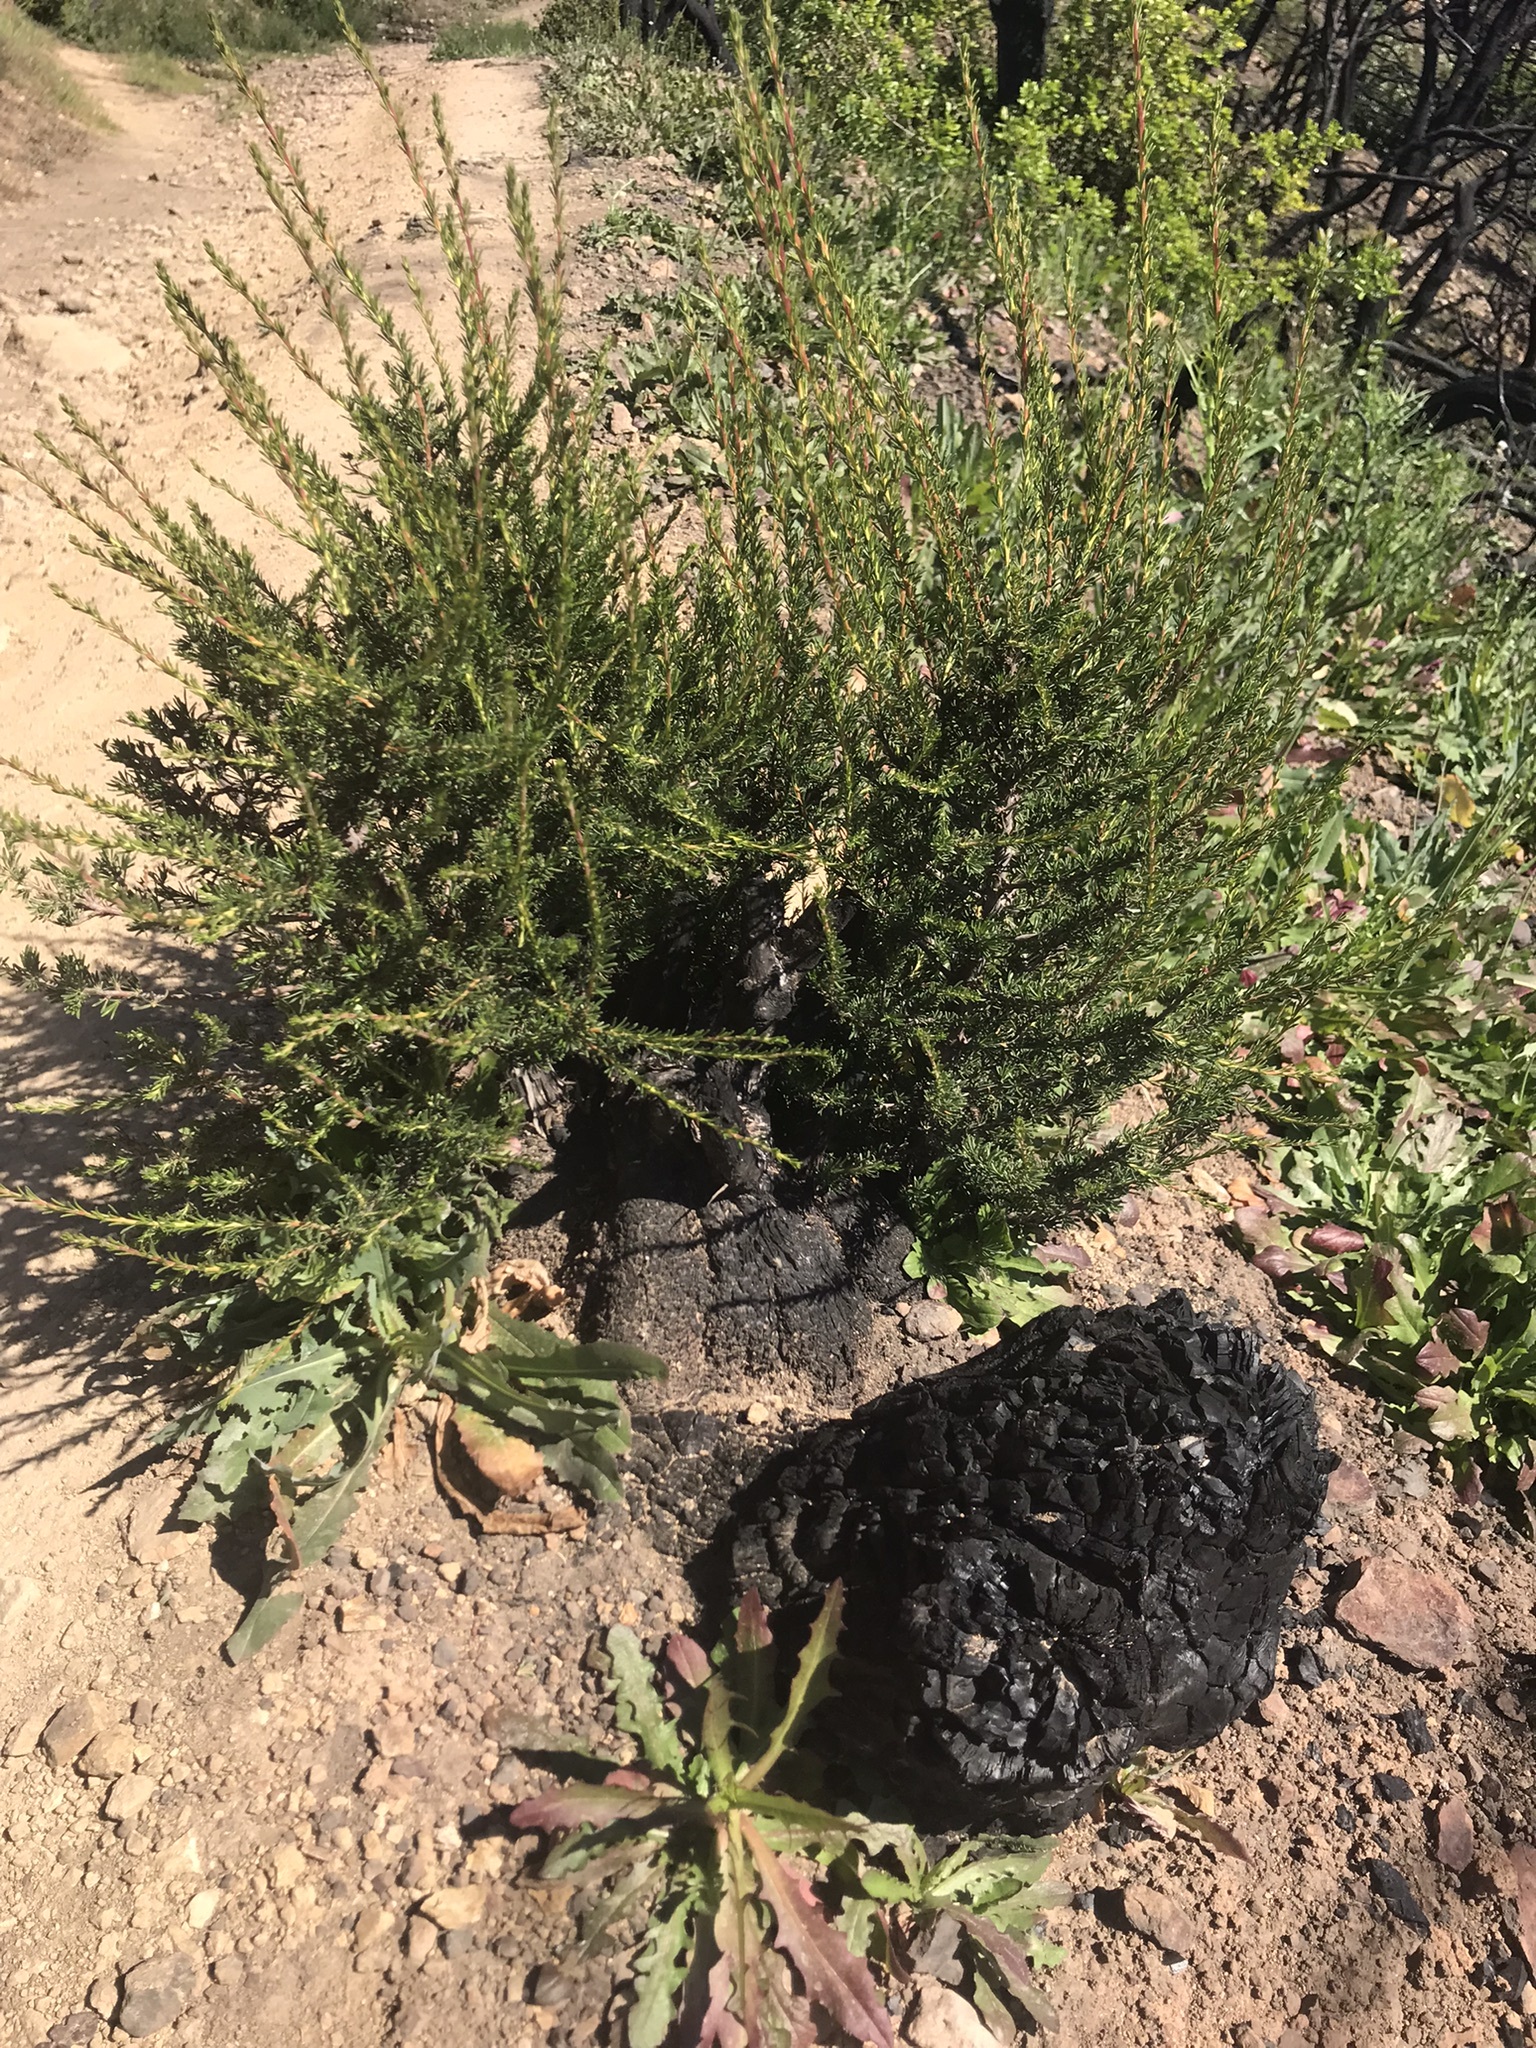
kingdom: Plantae
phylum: Tracheophyta
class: Magnoliopsida
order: Rosales
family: Rosaceae
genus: Adenostoma
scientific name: Adenostoma fasciculatum
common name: Chamise
